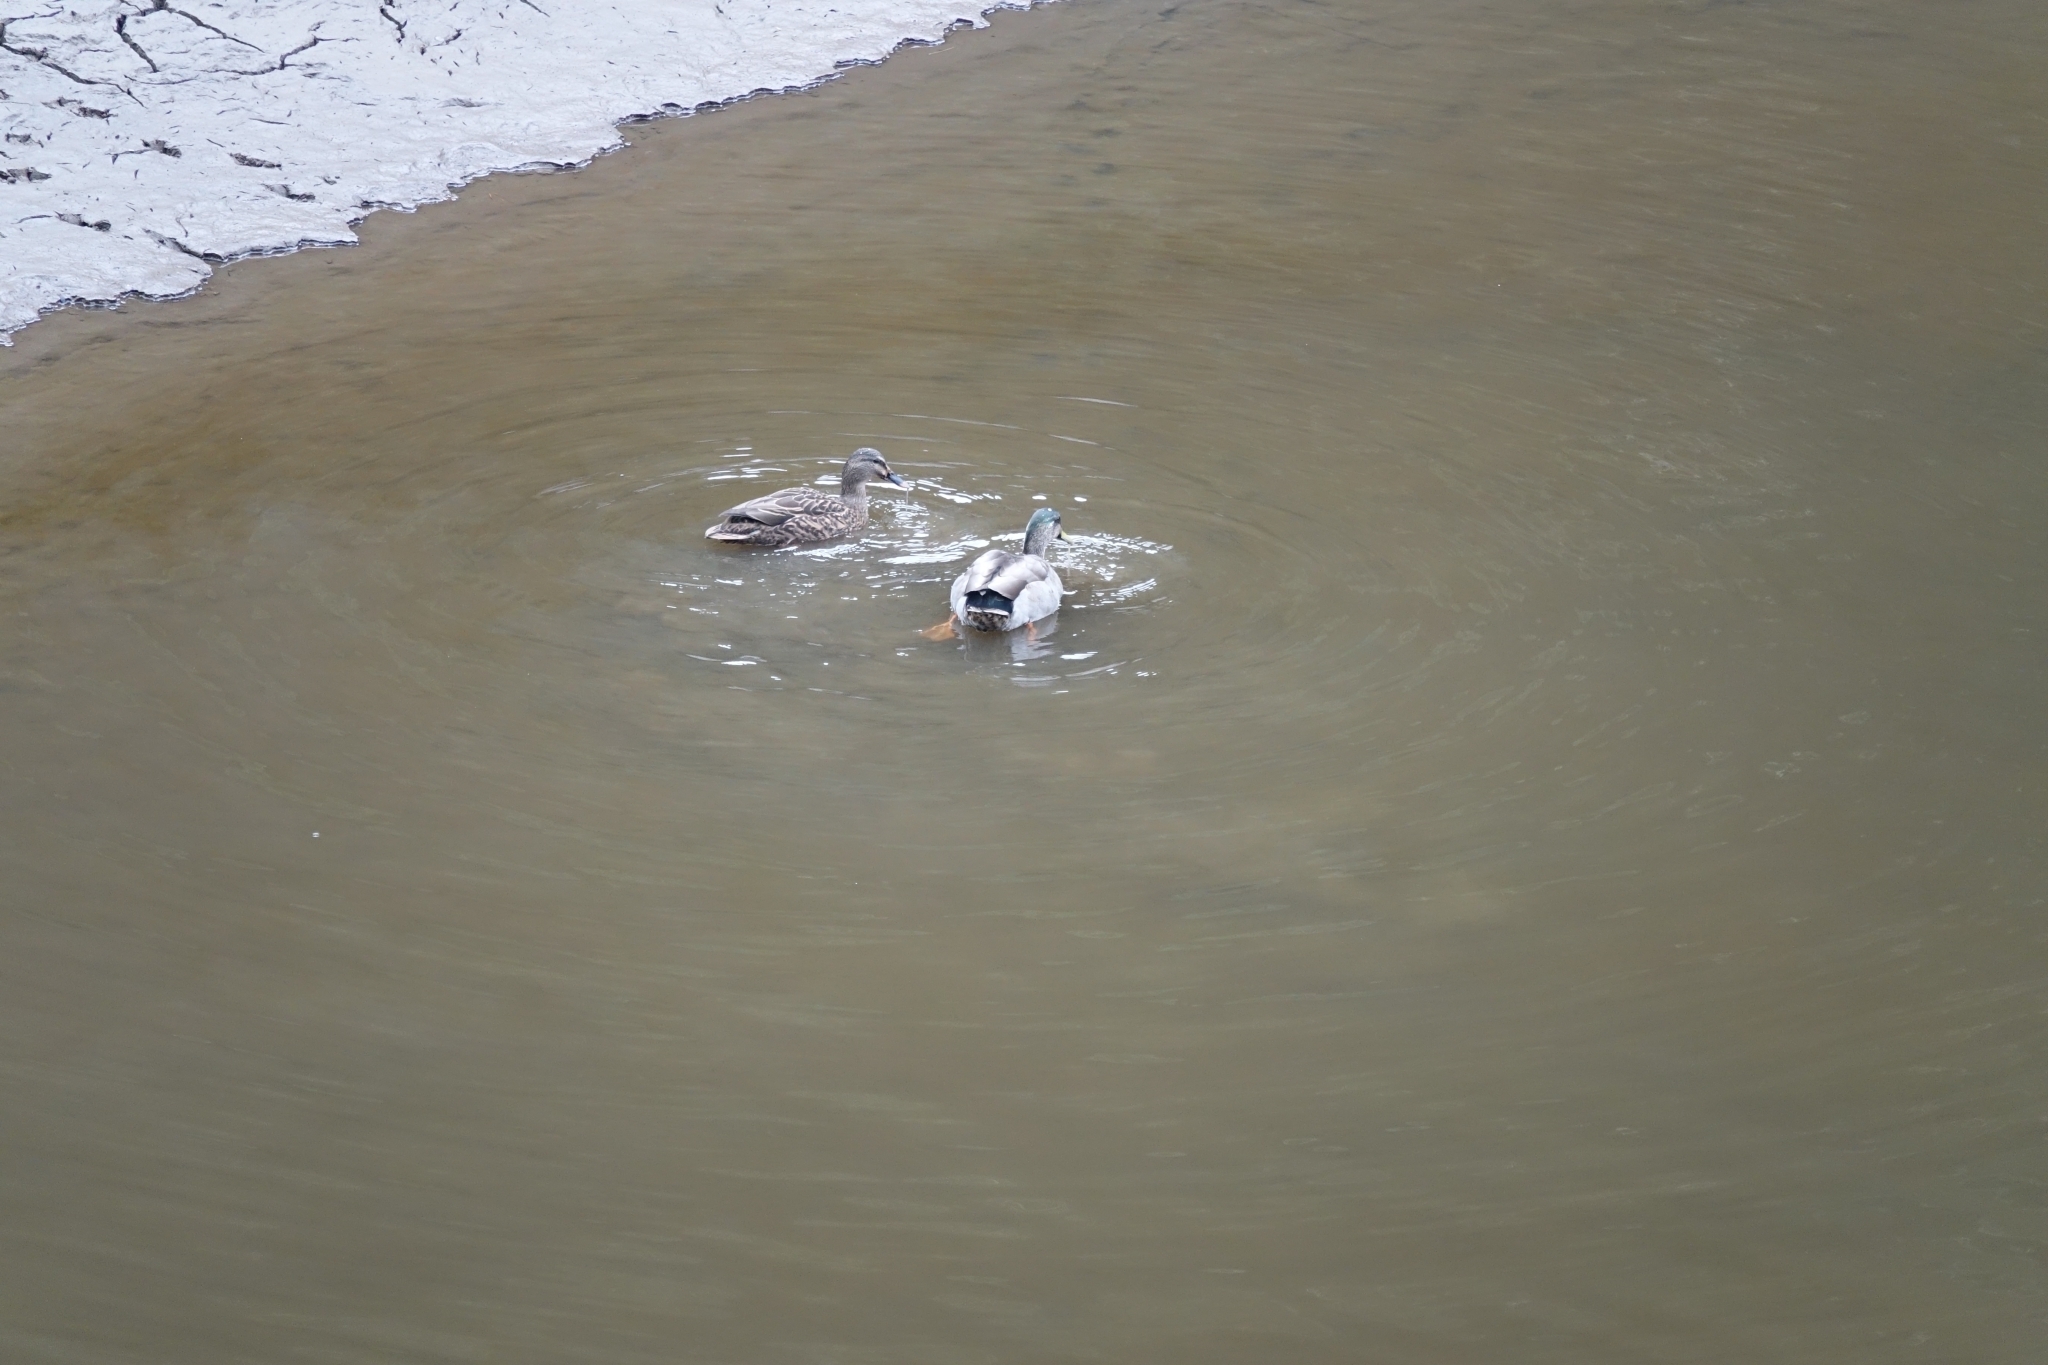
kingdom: Animalia
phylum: Chordata
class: Aves
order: Anseriformes
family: Anatidae
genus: Anas
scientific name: Anas platyrhynchos
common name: Mallard
